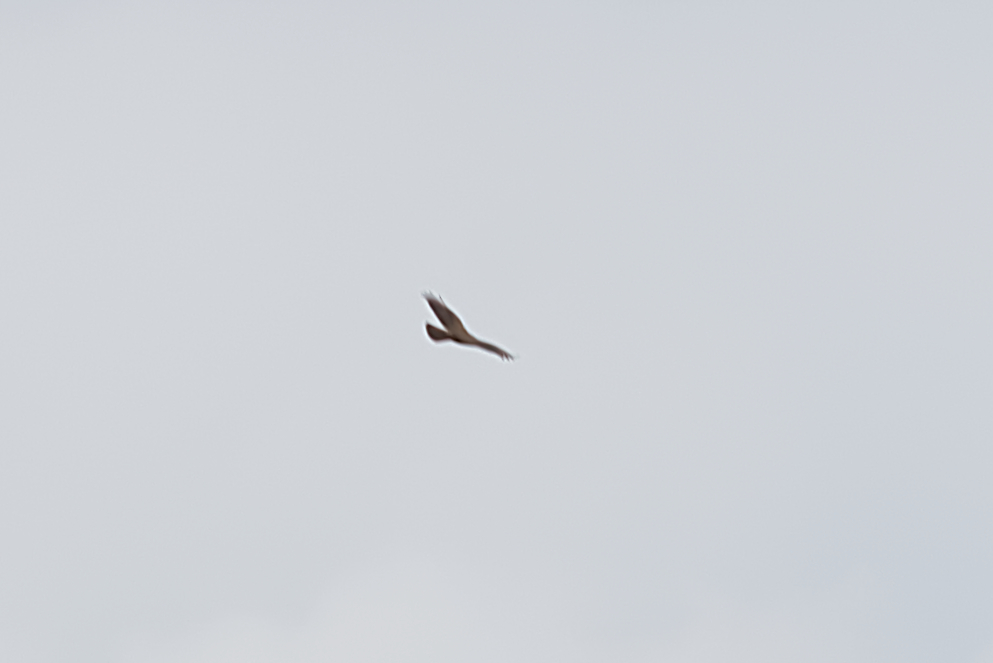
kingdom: Animalia
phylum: Chordata
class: Aves
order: Accipitriformes
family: Accipitridae
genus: Circus
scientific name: Circus aeruginosus
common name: Western marsh harrier
